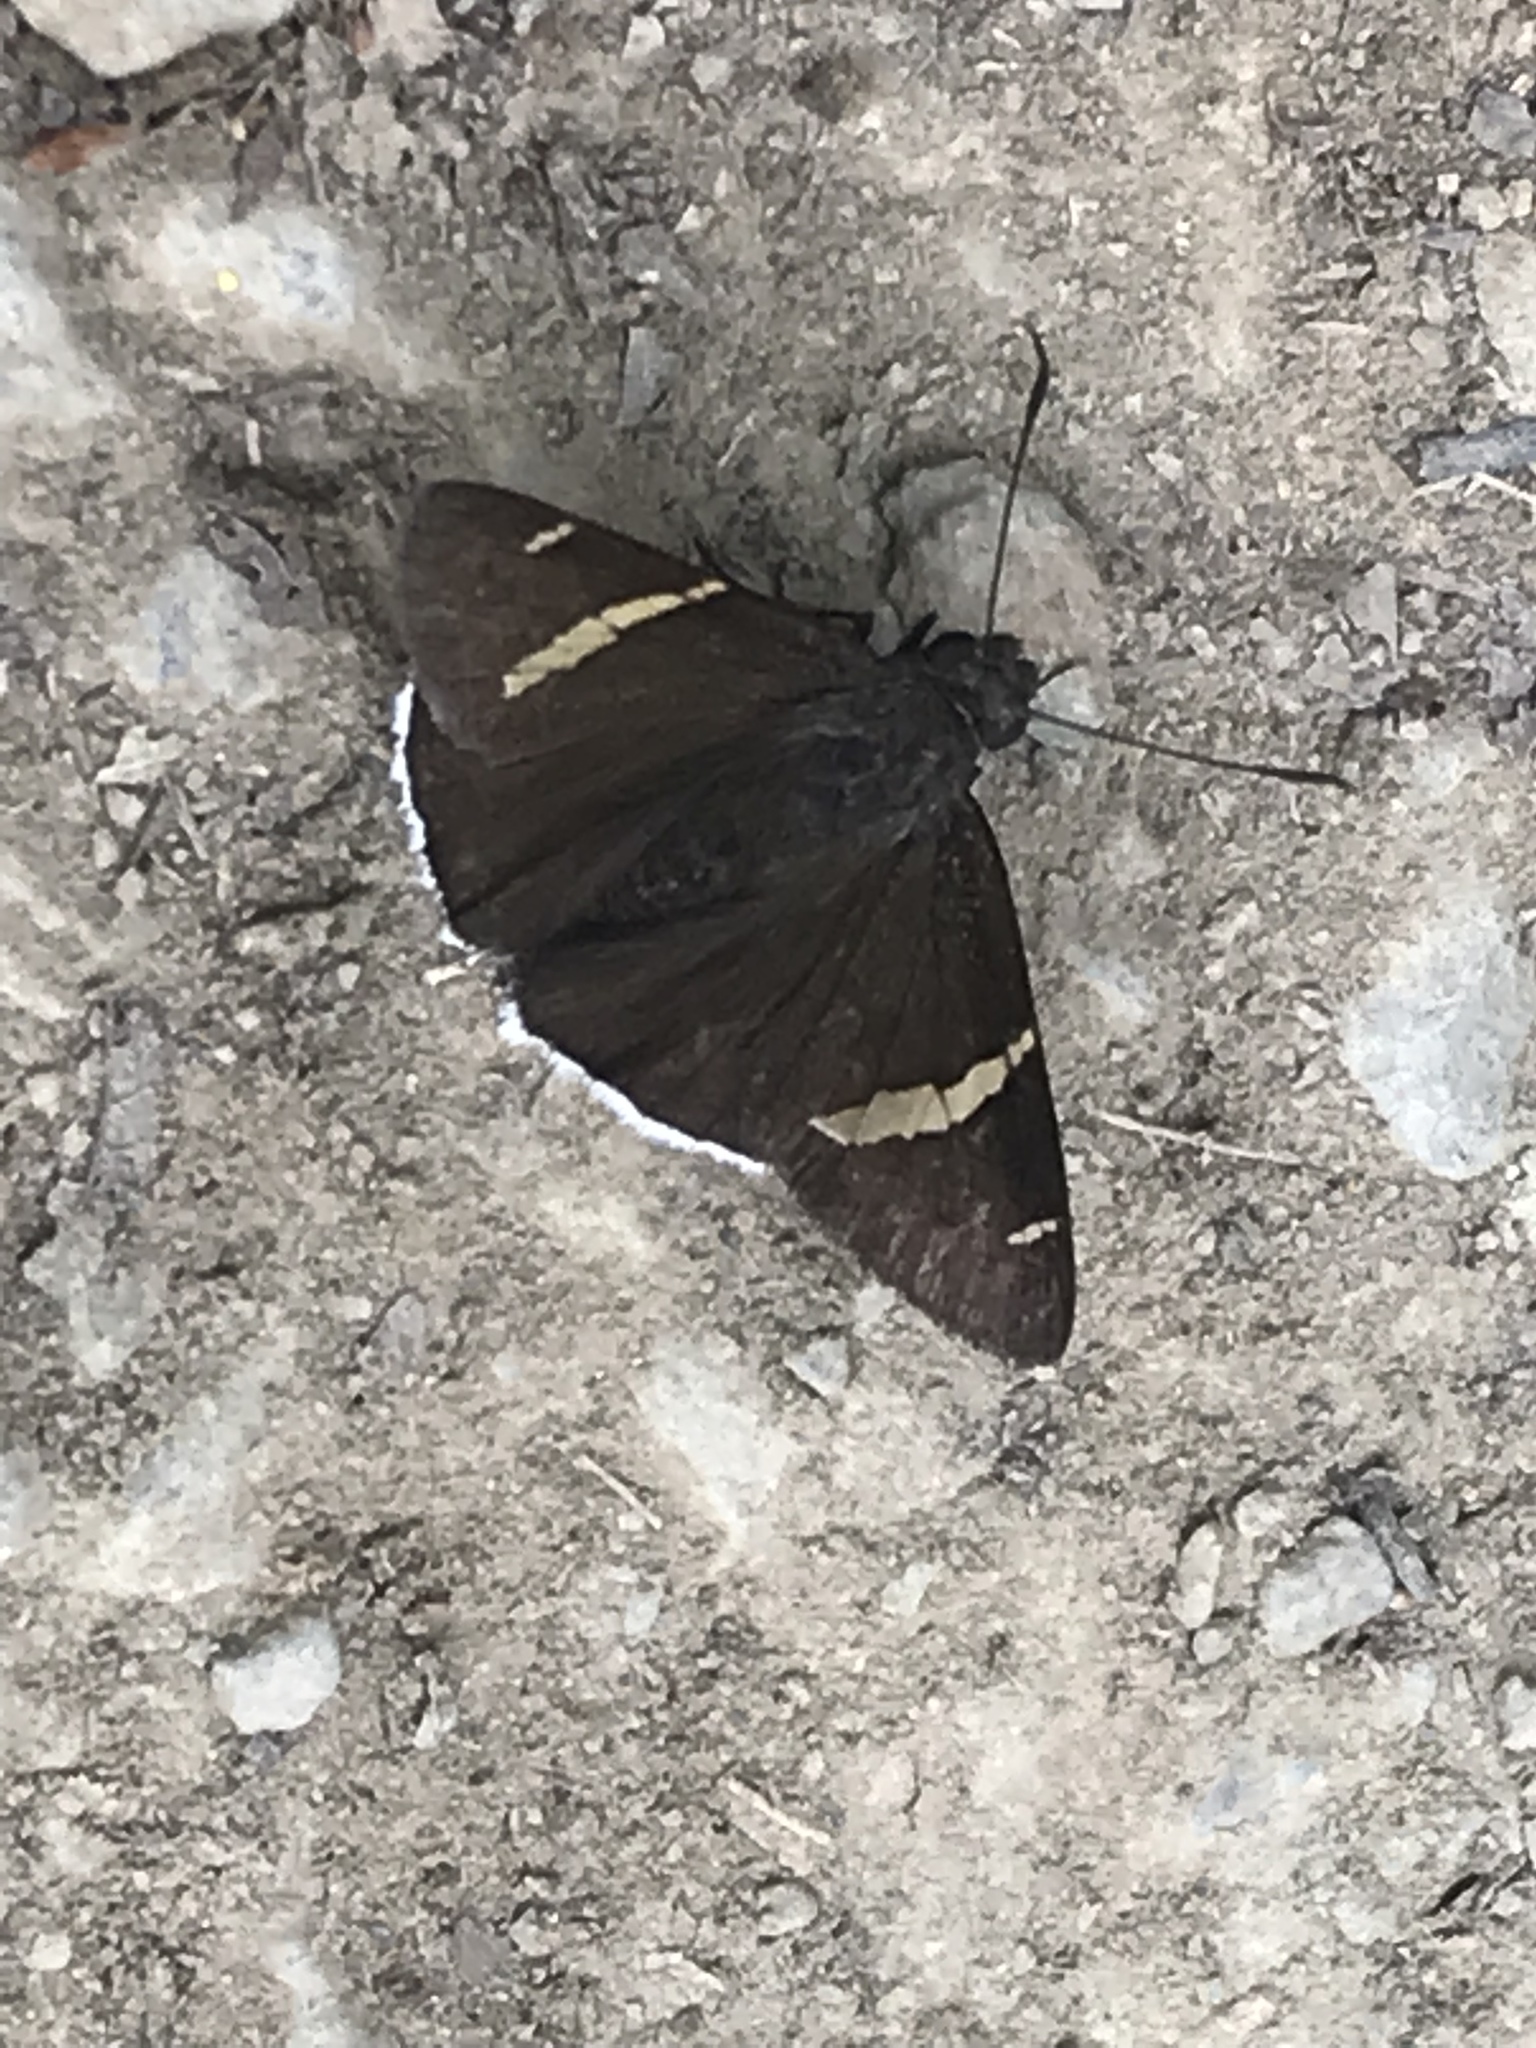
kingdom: Animalia
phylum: Arthropoda
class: Insecta
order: Lepidoptera
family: Hesperiidae
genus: Thorybes
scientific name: Thorybes cincta
